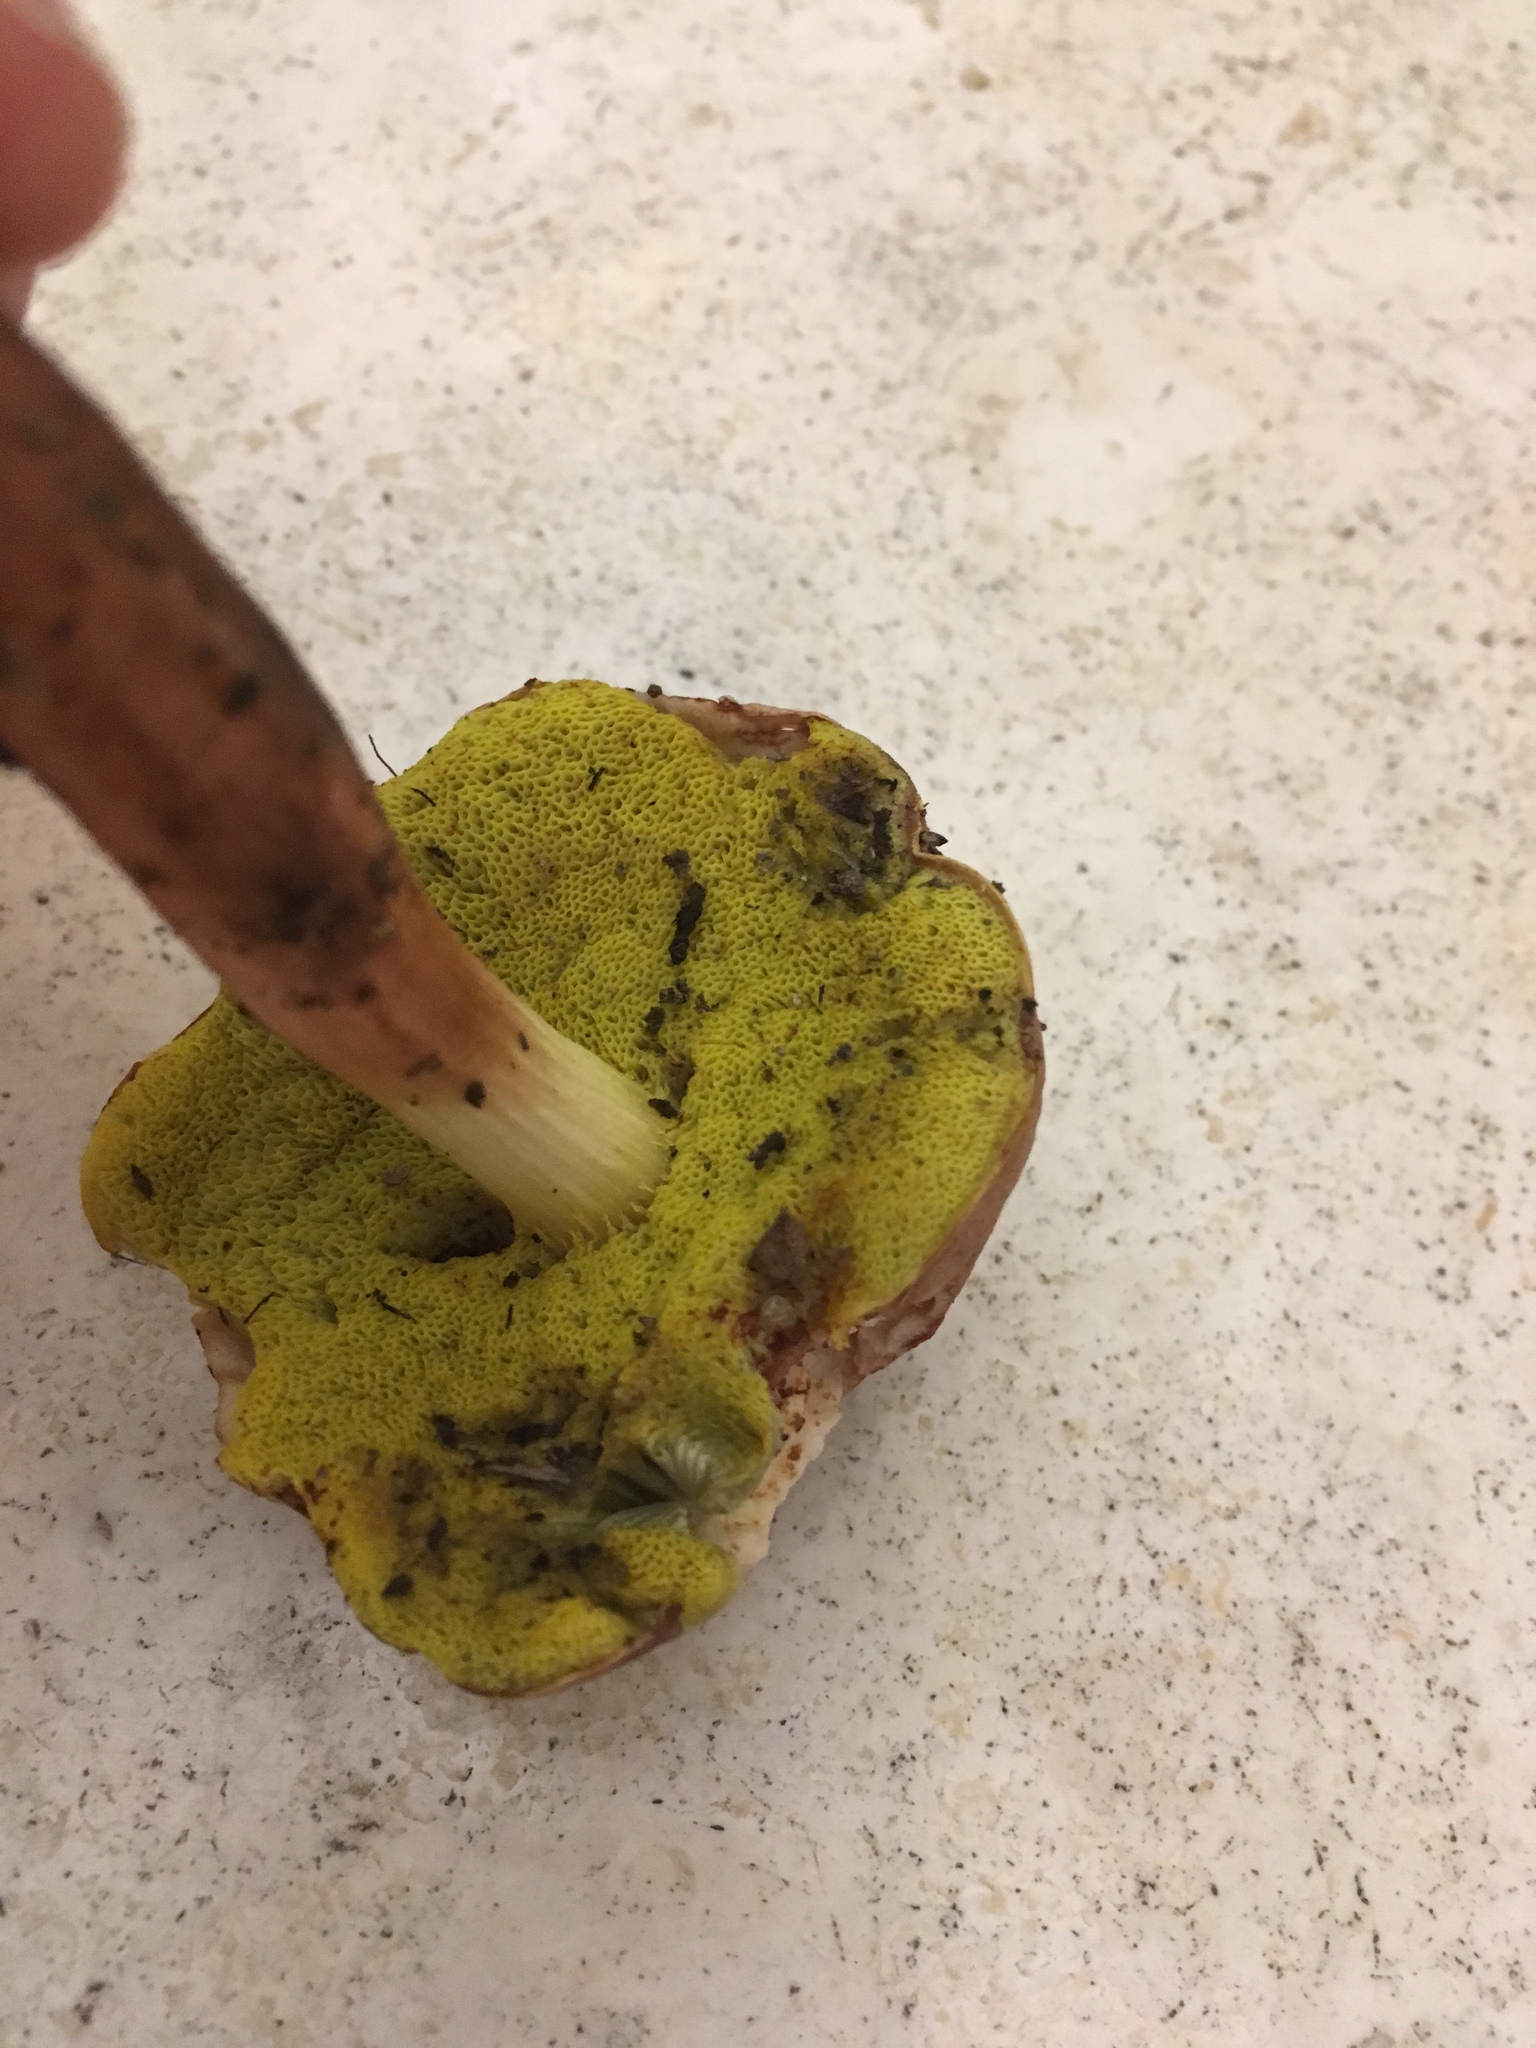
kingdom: Fungi
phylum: Basidiomycota
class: Agaricomycetes
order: Boletales
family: Boletaceae
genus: Aureoboletus
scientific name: Aureoboletus auriporus
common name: Sour gold-pored bolete
